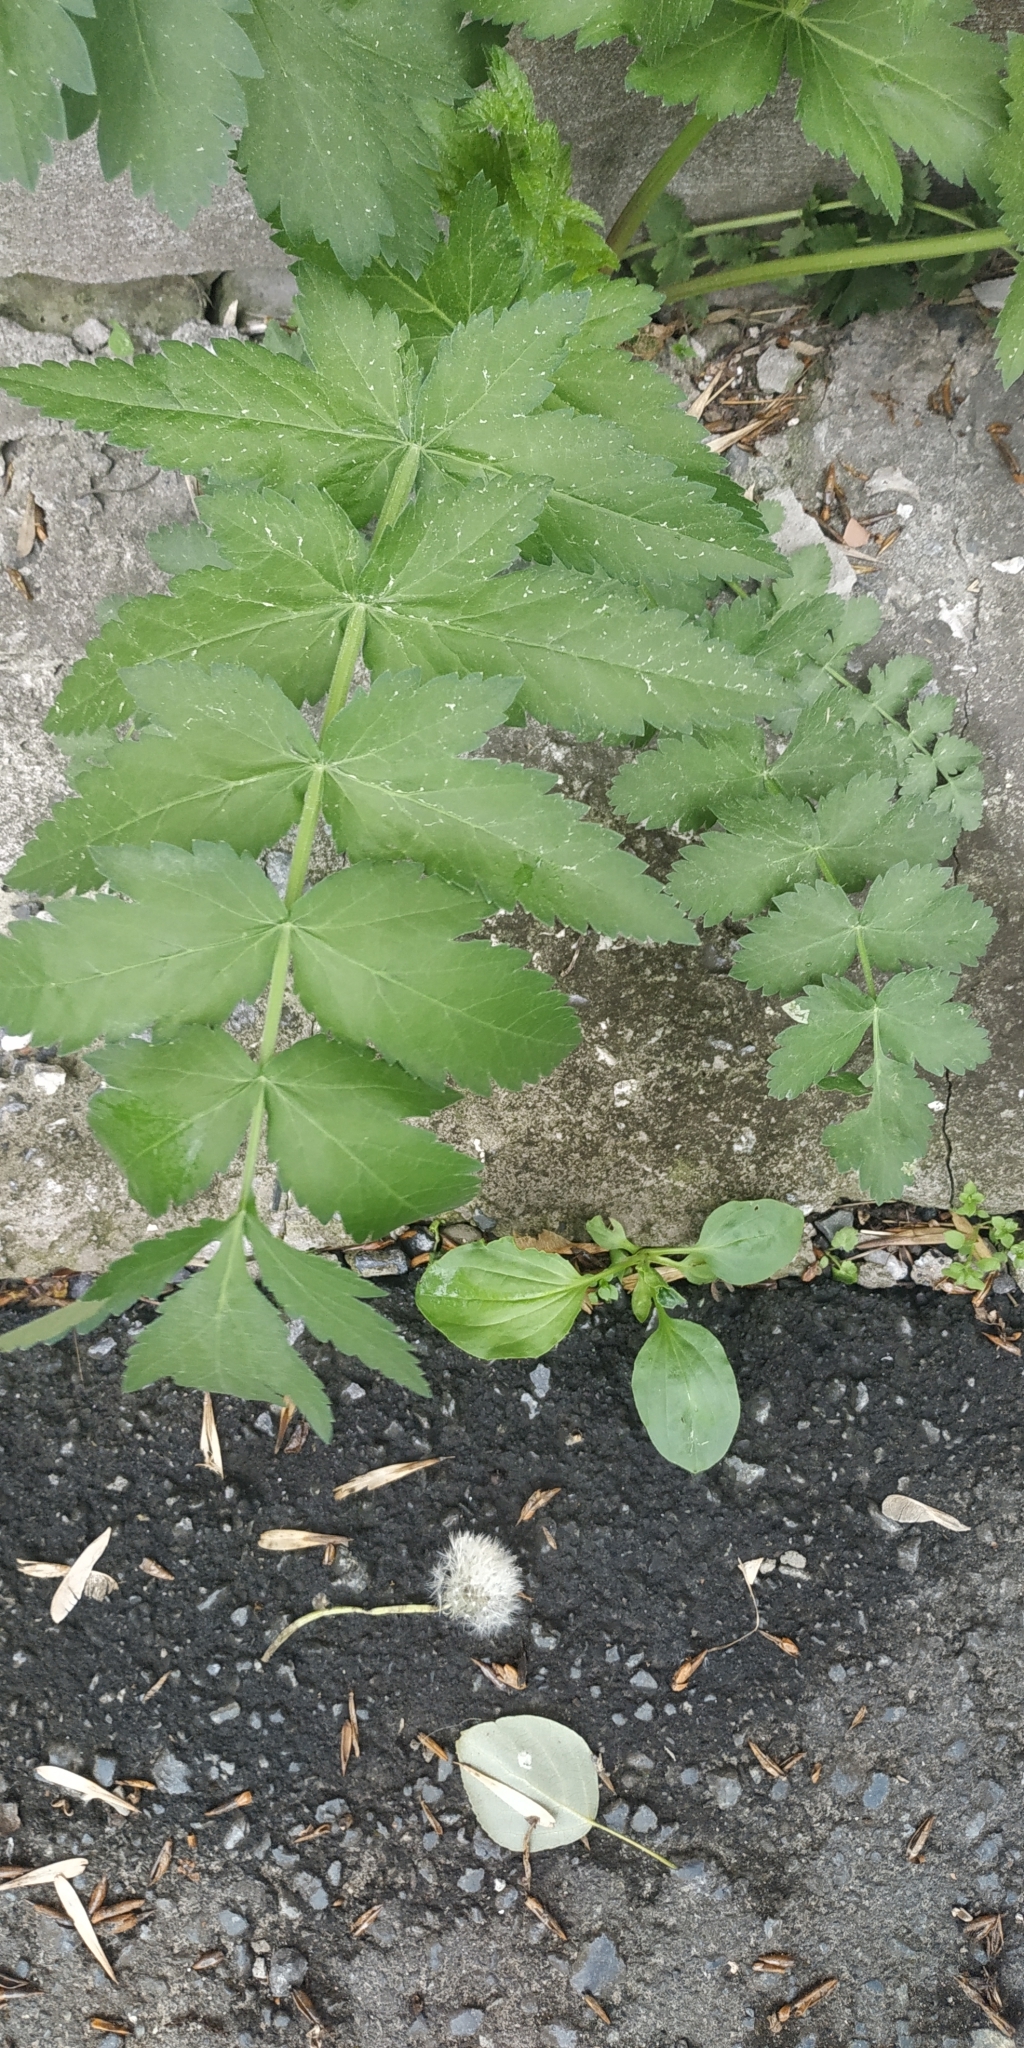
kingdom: Plantae
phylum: Tracheophyta
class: Magnoliopsida
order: Apiales
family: Apiaceae
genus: Pastinaca
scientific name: Pastinaca sativa
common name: Wild parsnip
